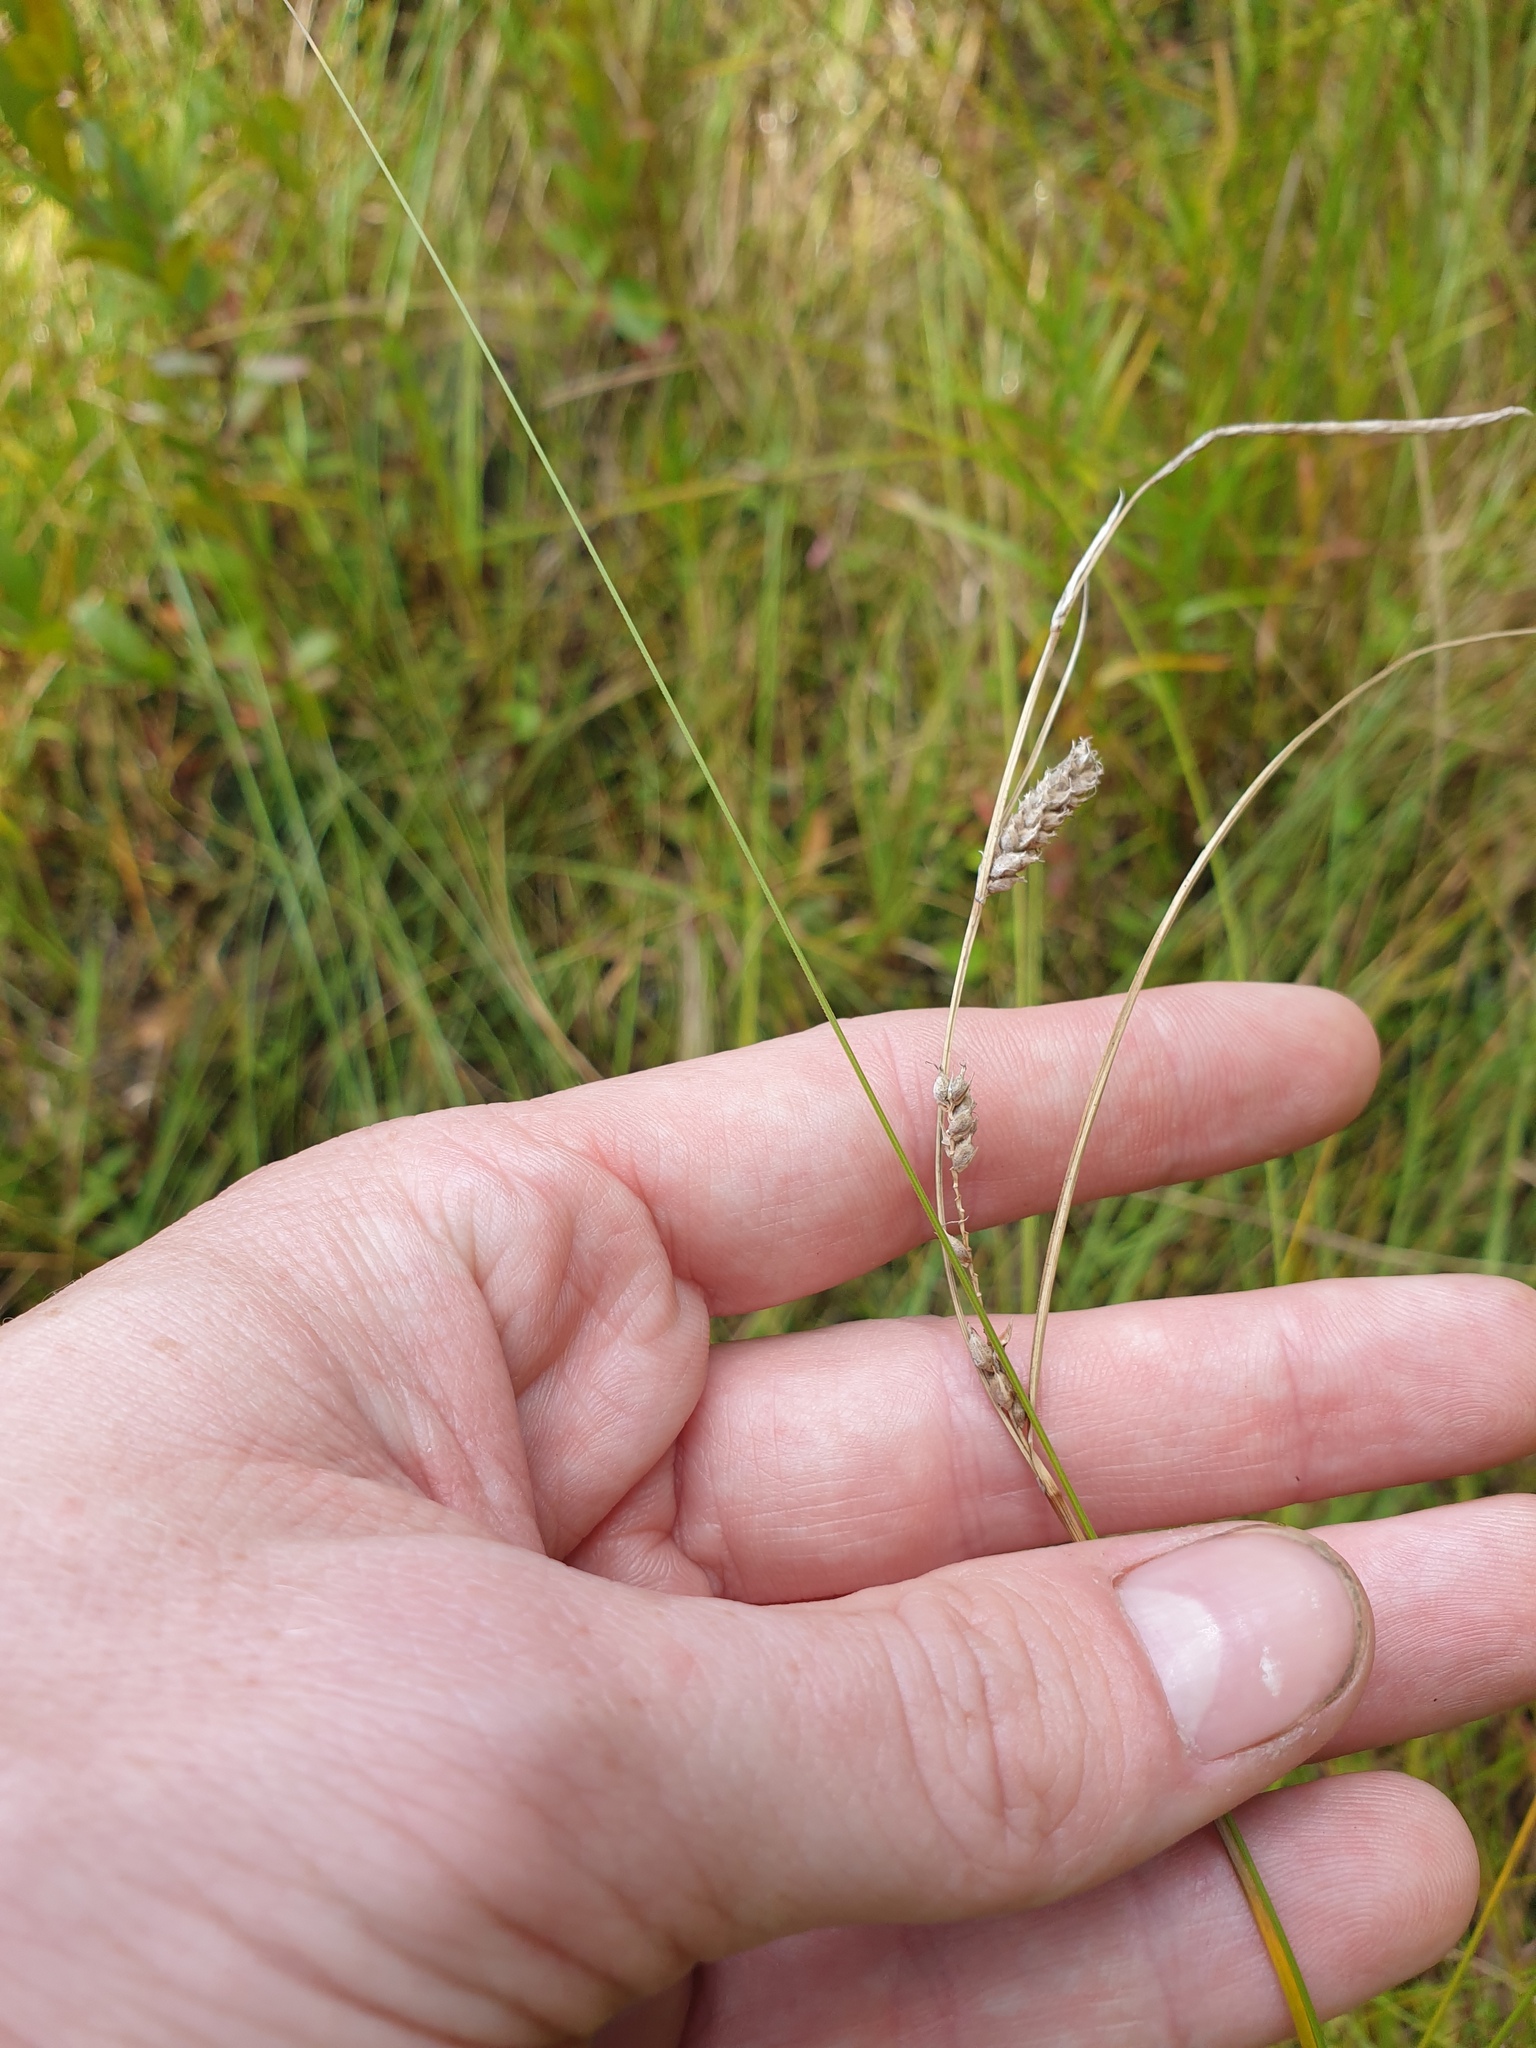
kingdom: Plantae
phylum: Tracheophyta
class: Magnoliopsida
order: Apiales
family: Apiaceae
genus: Cicuta
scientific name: Cicuta bulbifera
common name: Bulb-bearing water-hemlock
